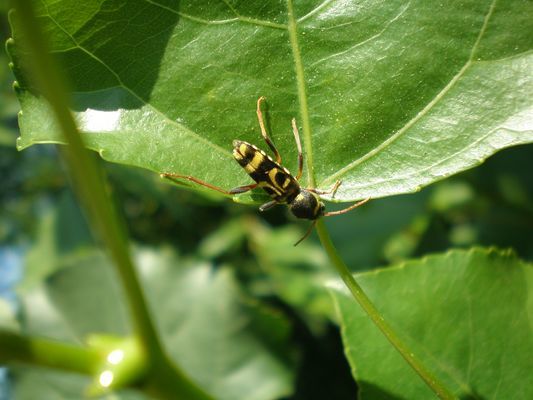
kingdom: Animalia
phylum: Arthropoda
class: Insecta
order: Coleoptera
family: Cerambycidae
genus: Xylotrechus
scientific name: Xylotrechus arvicola
